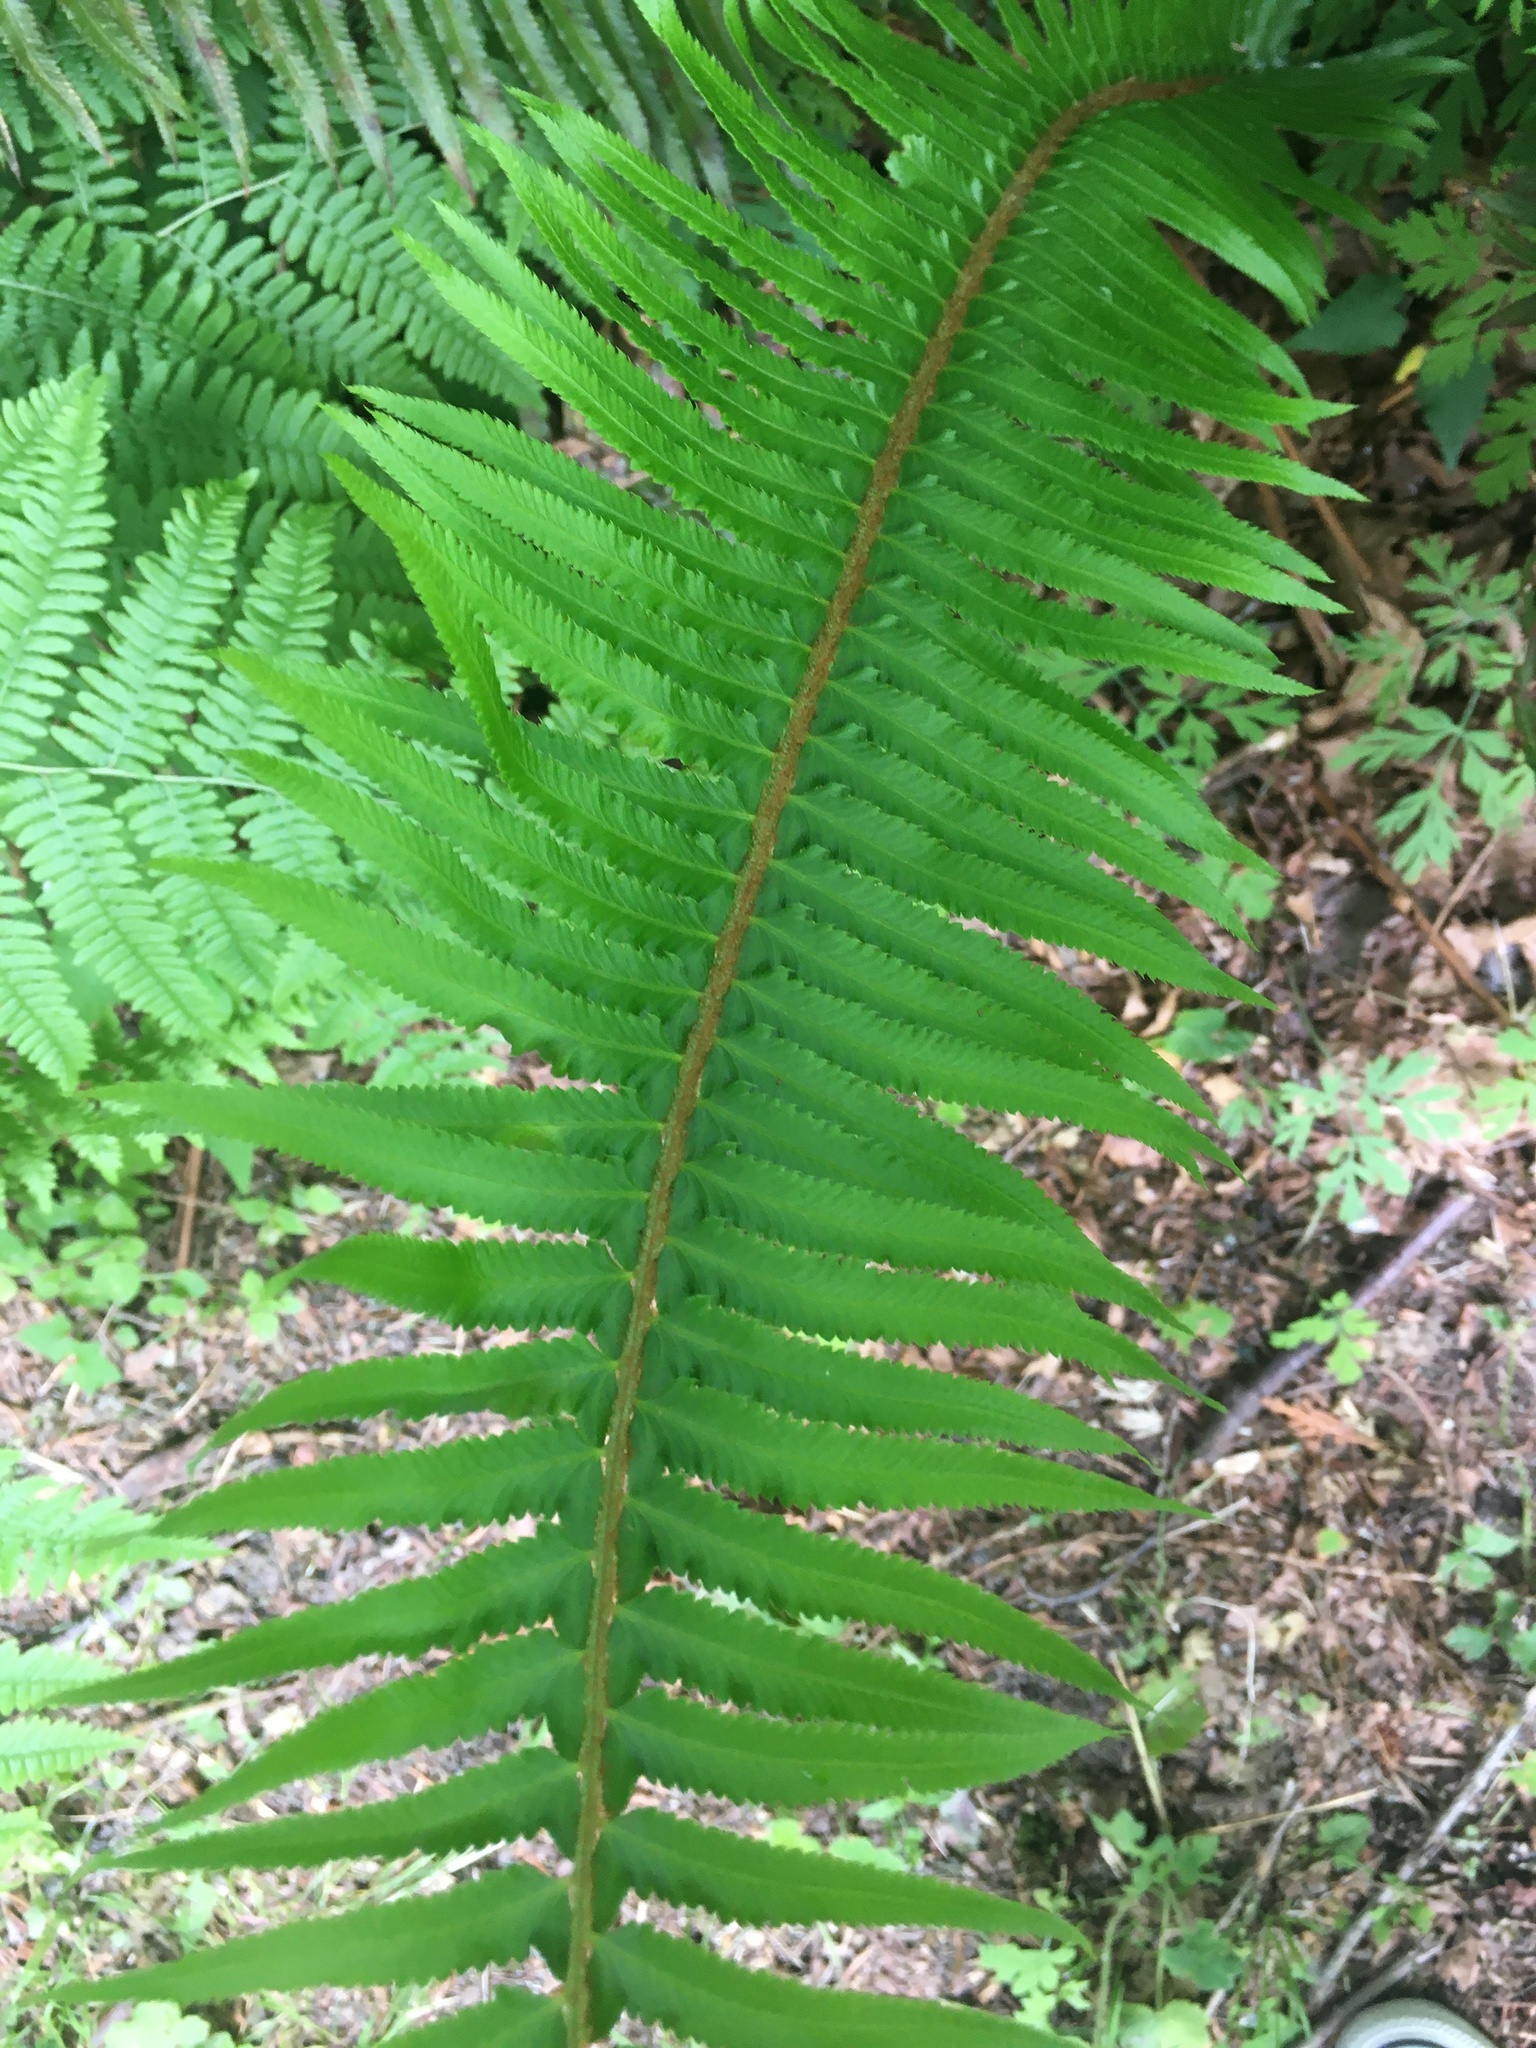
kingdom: Plantae
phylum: Tracheophyta
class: Polypodiopsida
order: Polypodiales
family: Dryopteridaceae
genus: Polystichum
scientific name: Polystichum munitum
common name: Western sword-fern
